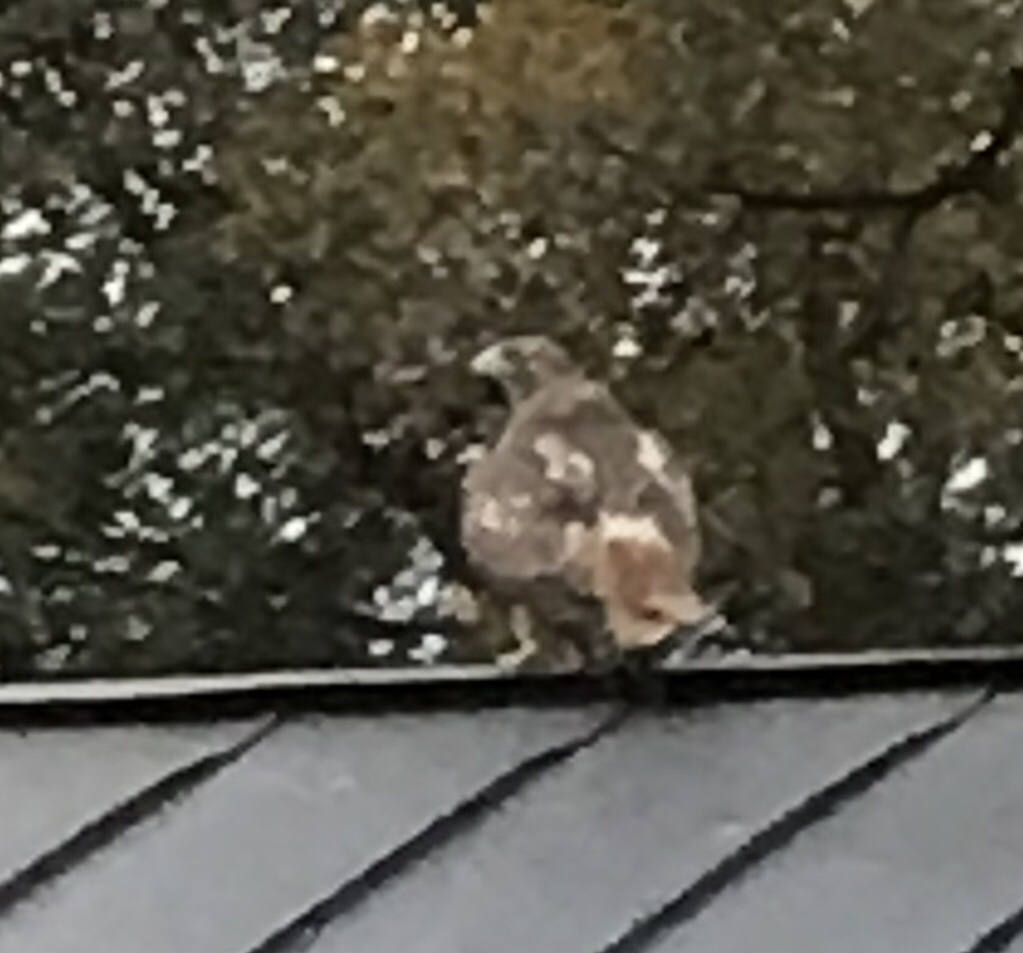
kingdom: Animalia
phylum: Chordata
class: Aves
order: Accipitriformes
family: Accipitridae
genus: Buteo
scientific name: Buteo jamaicensis
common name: Red-tailed hawk
